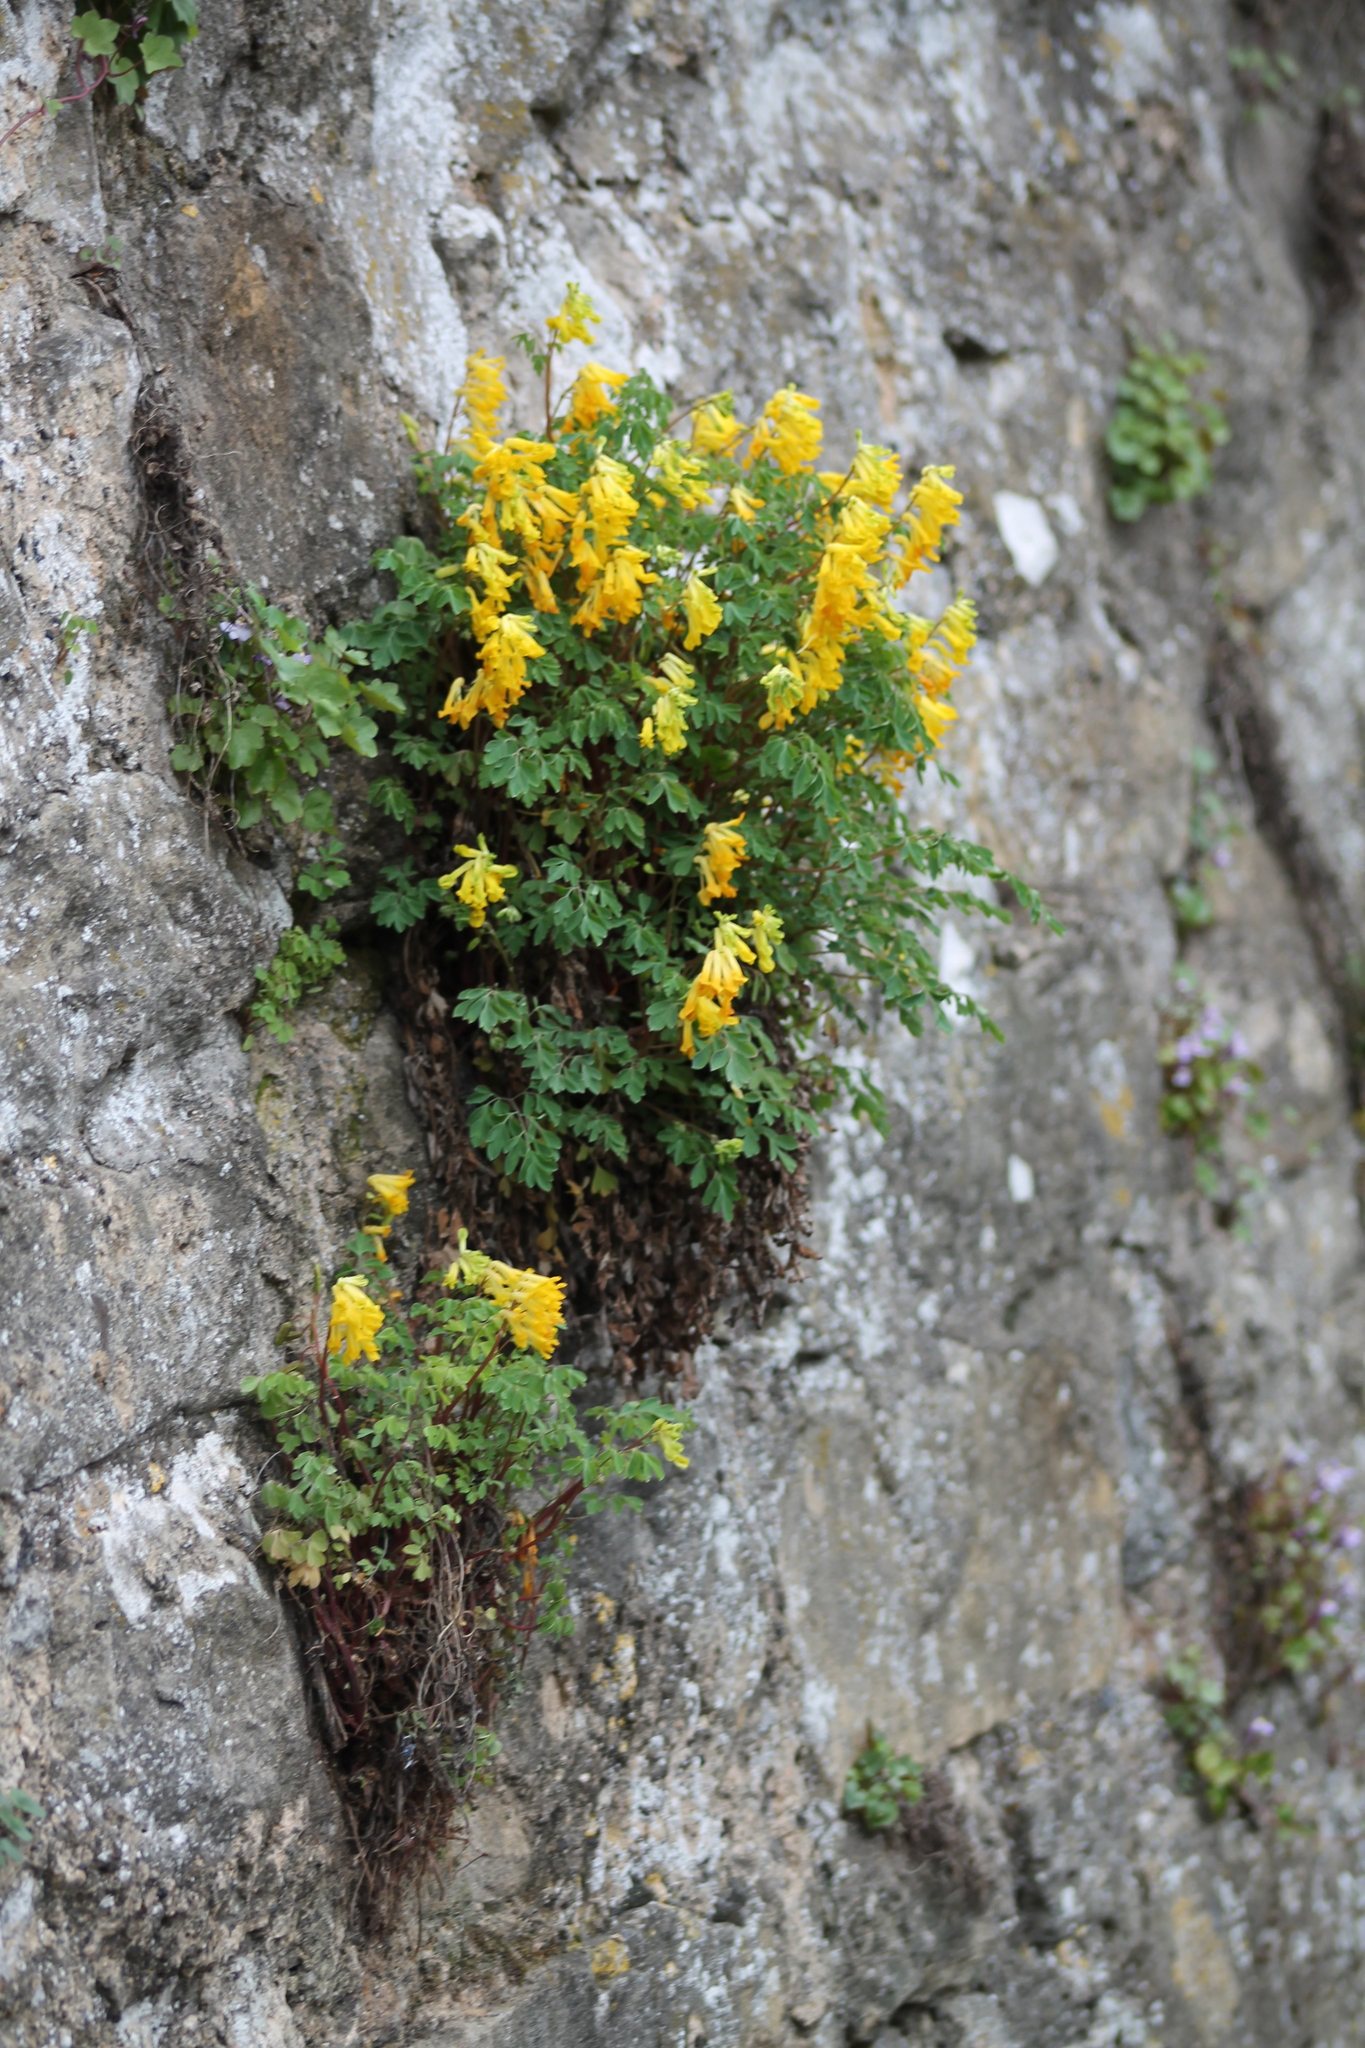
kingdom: Plantae
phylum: Tracheophyta
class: Magnoliopsida
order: Ranunculales
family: Papaveraceae
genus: Pseudofumaria
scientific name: Pseudofumaria lutea
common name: Yellow corydalis
